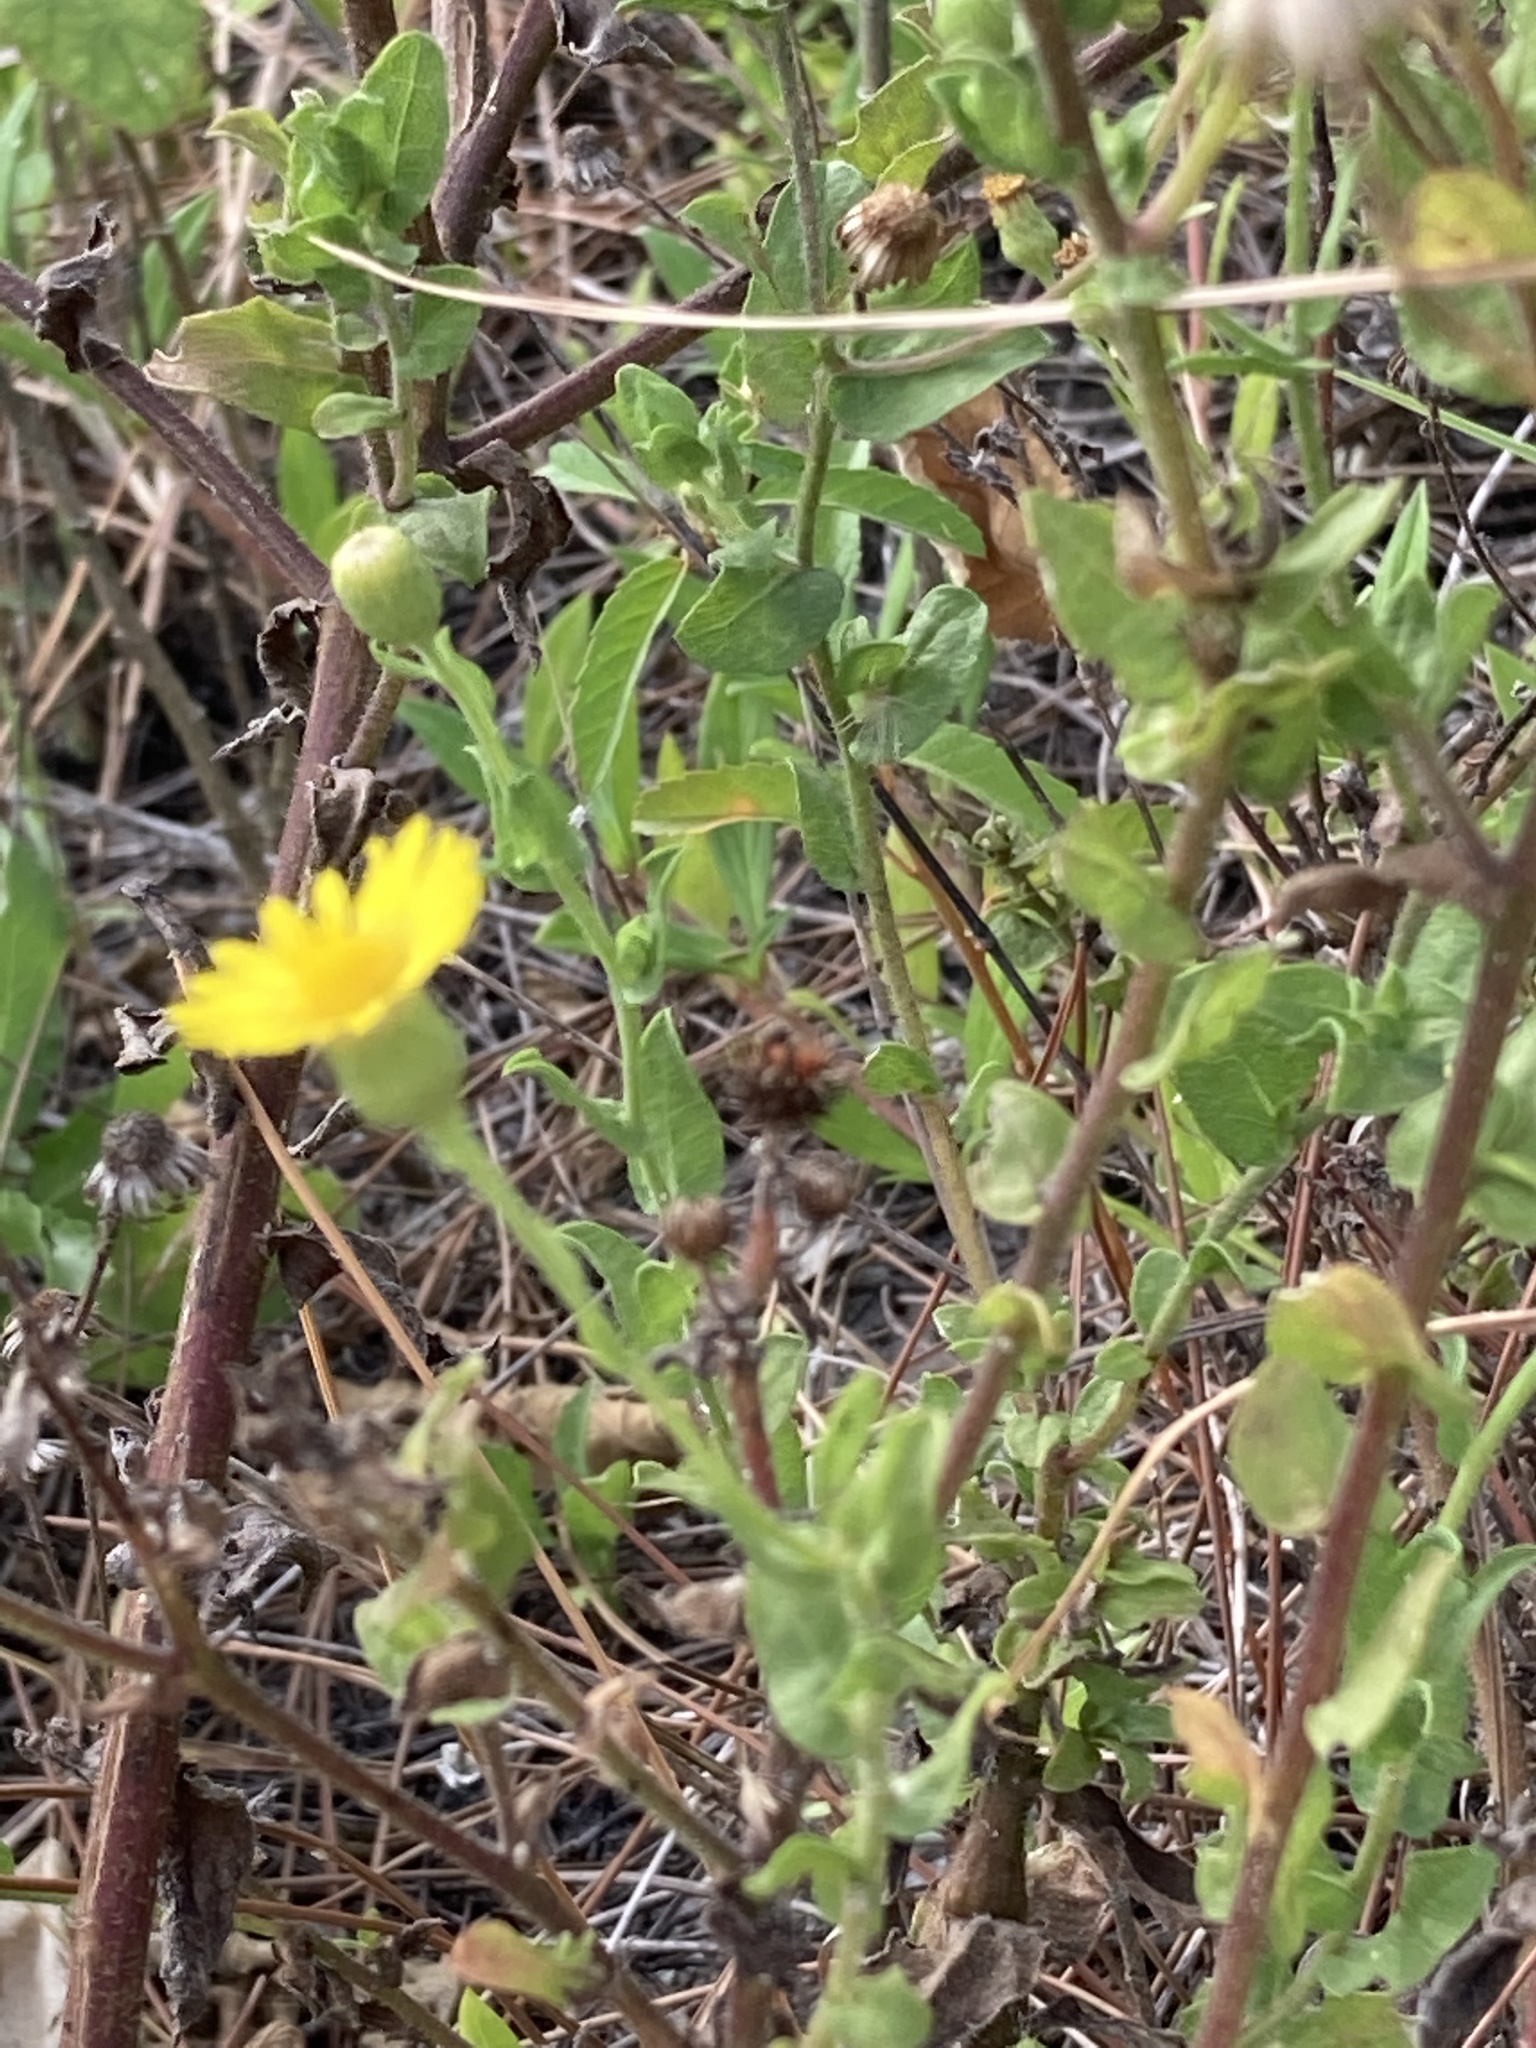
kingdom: Plantae
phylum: Tracheophyta
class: Magnoliopsida
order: Asterales
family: Asteraceae
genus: Heterotheca
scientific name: Heterotheca subaxillaris
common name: Camphorweed
